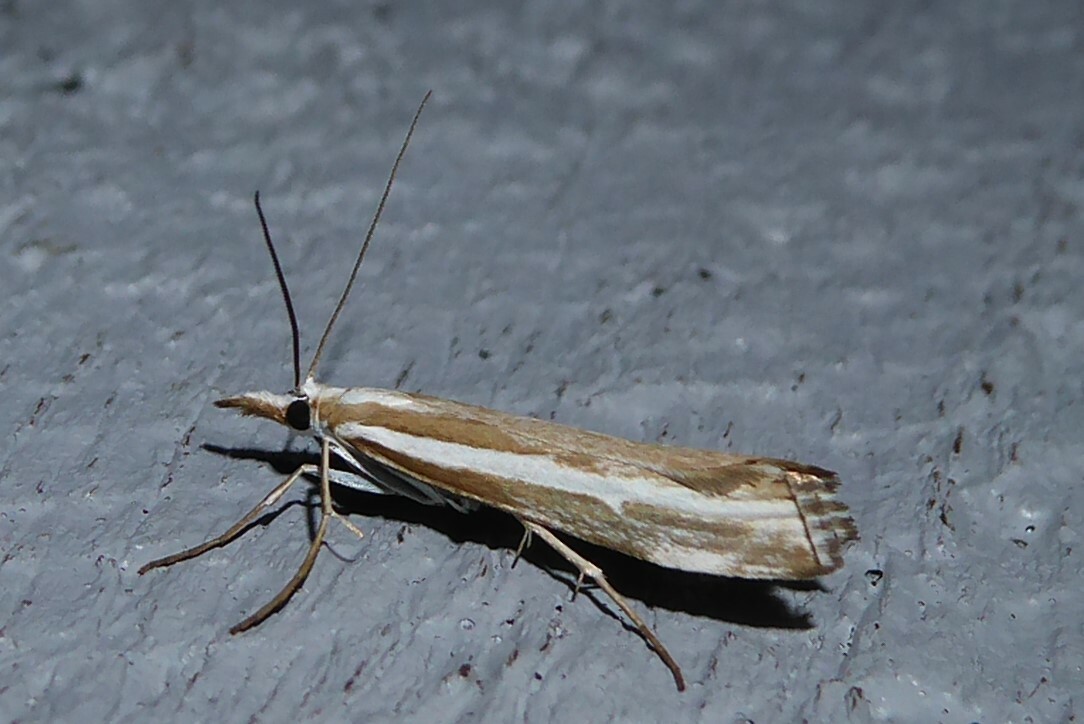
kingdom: Animalia
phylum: Arthropoda
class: Insecta
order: Lepidoptera
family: Crambidae
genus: Orocrambus
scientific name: Orocrambus vittellus
